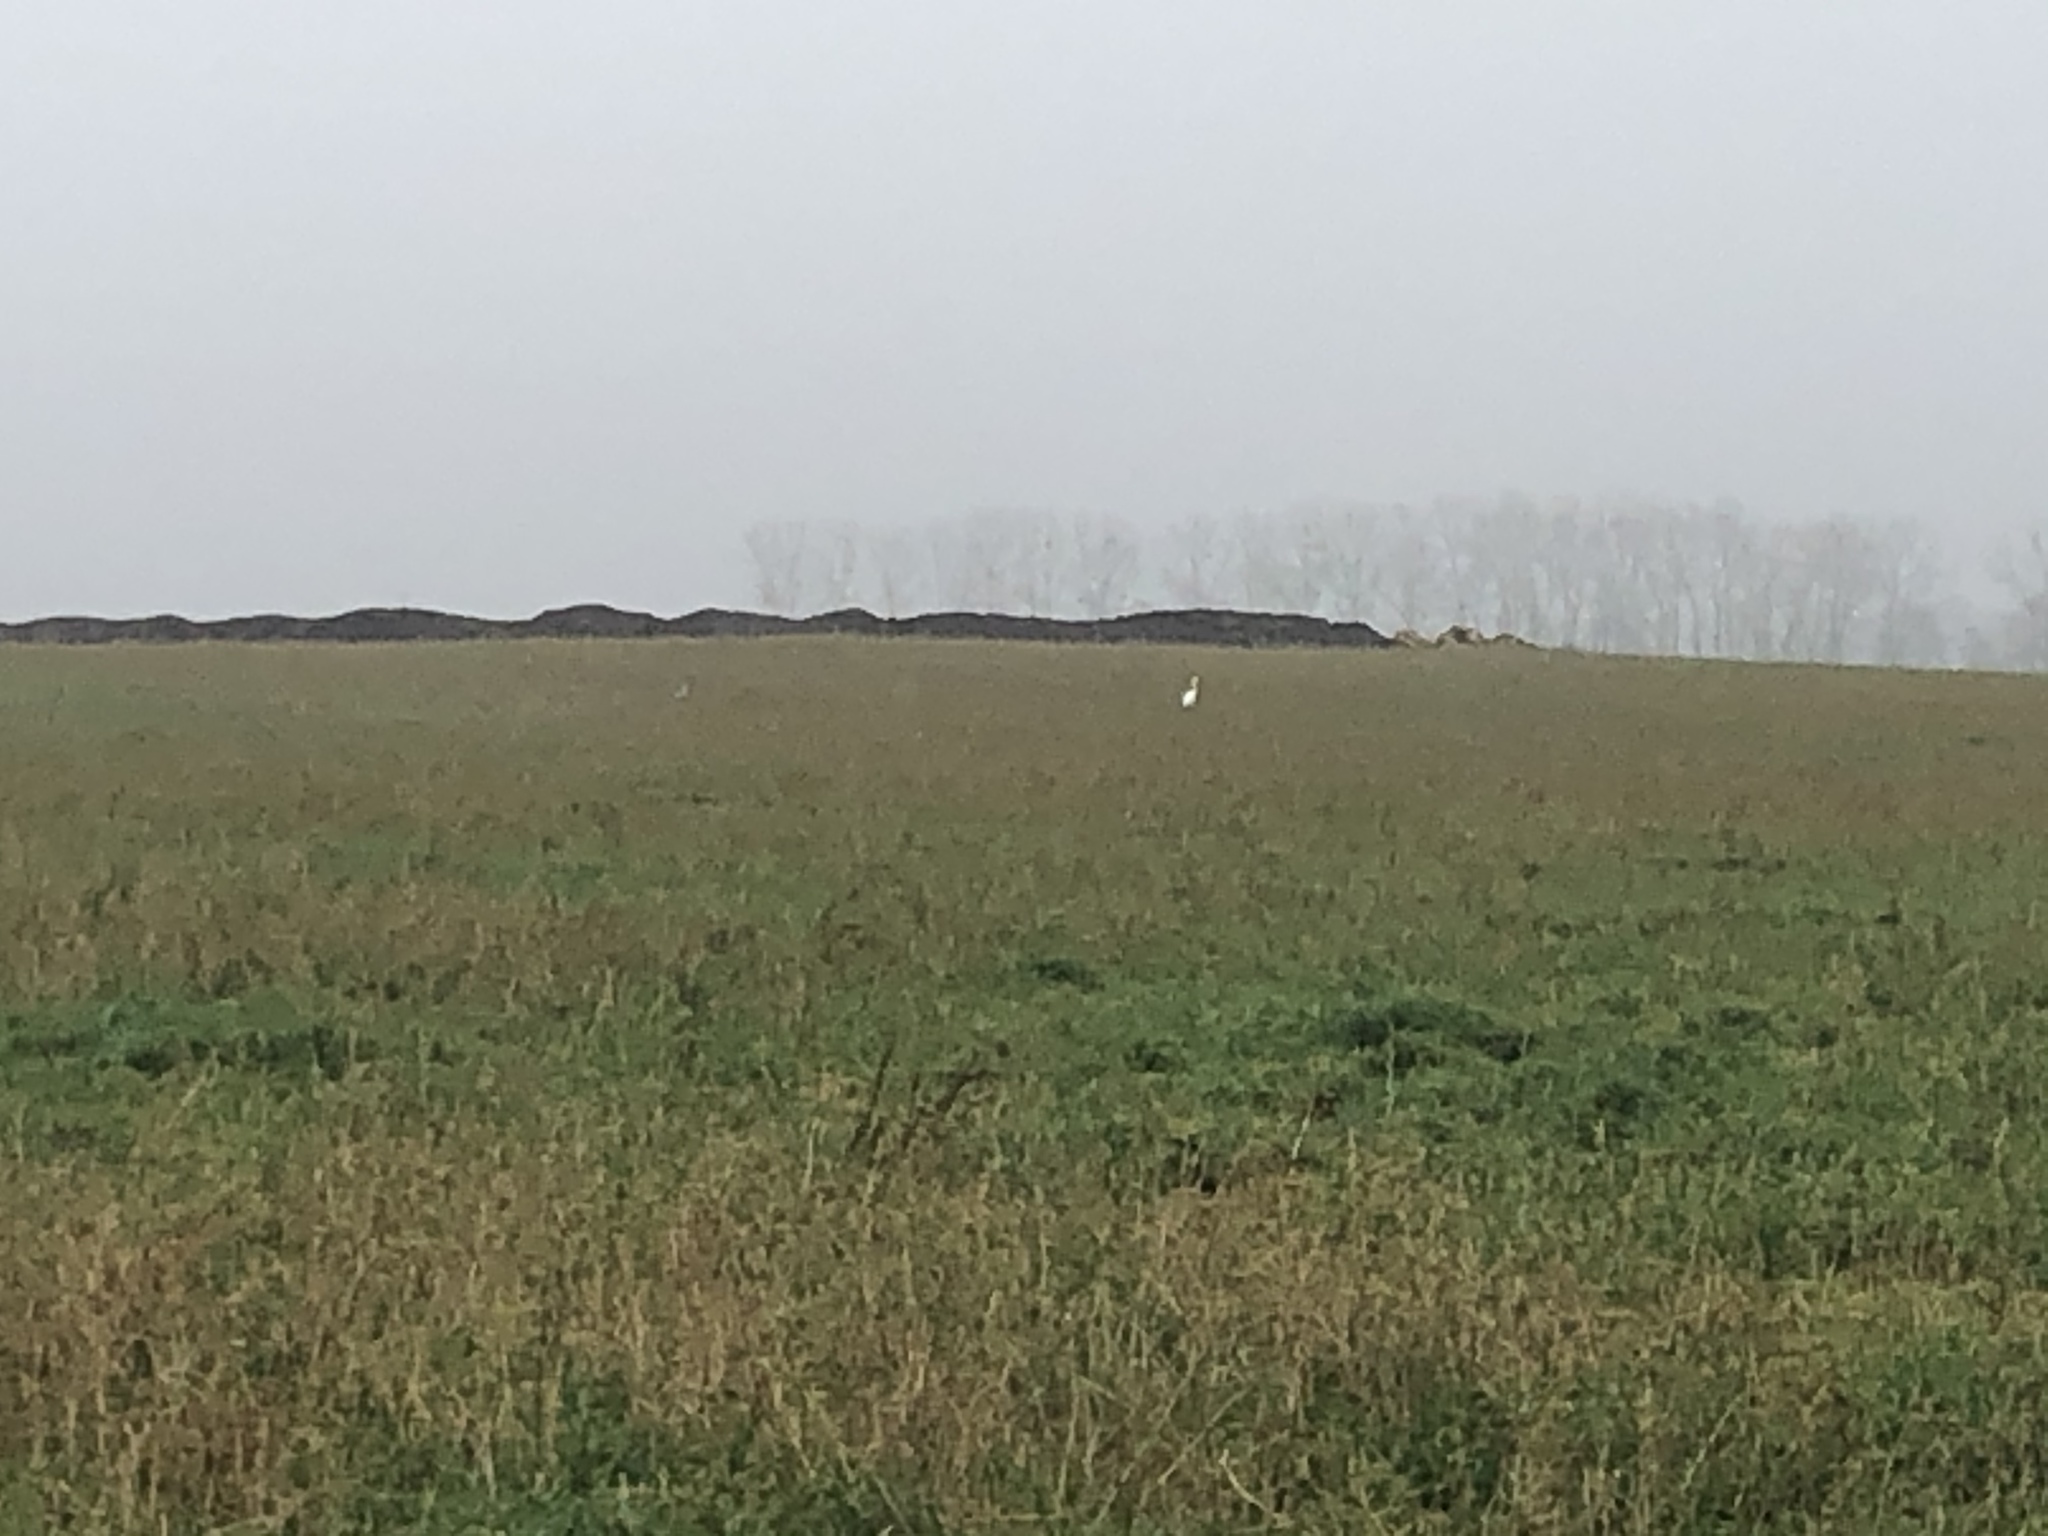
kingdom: Animalia
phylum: Chordata
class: Aves
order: Pelecaniformes
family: Ardeidae
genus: Ardea
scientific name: Ardea alba
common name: Great egret
